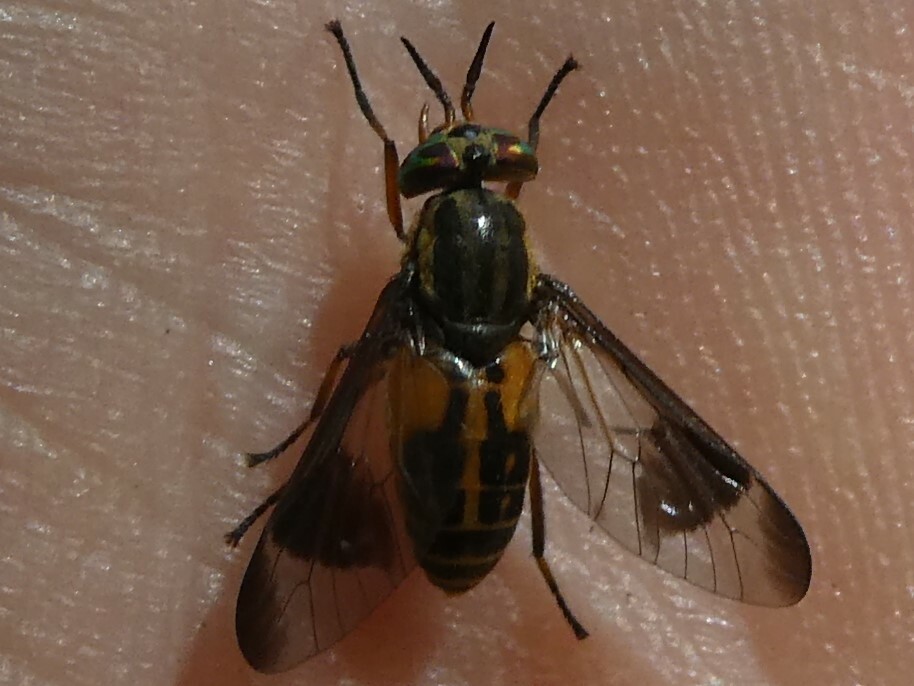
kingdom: Animalia
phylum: Arthropoda
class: Insecta
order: Diptera
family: Tabanidae
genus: Chrysops
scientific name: Chrysops lateralis
